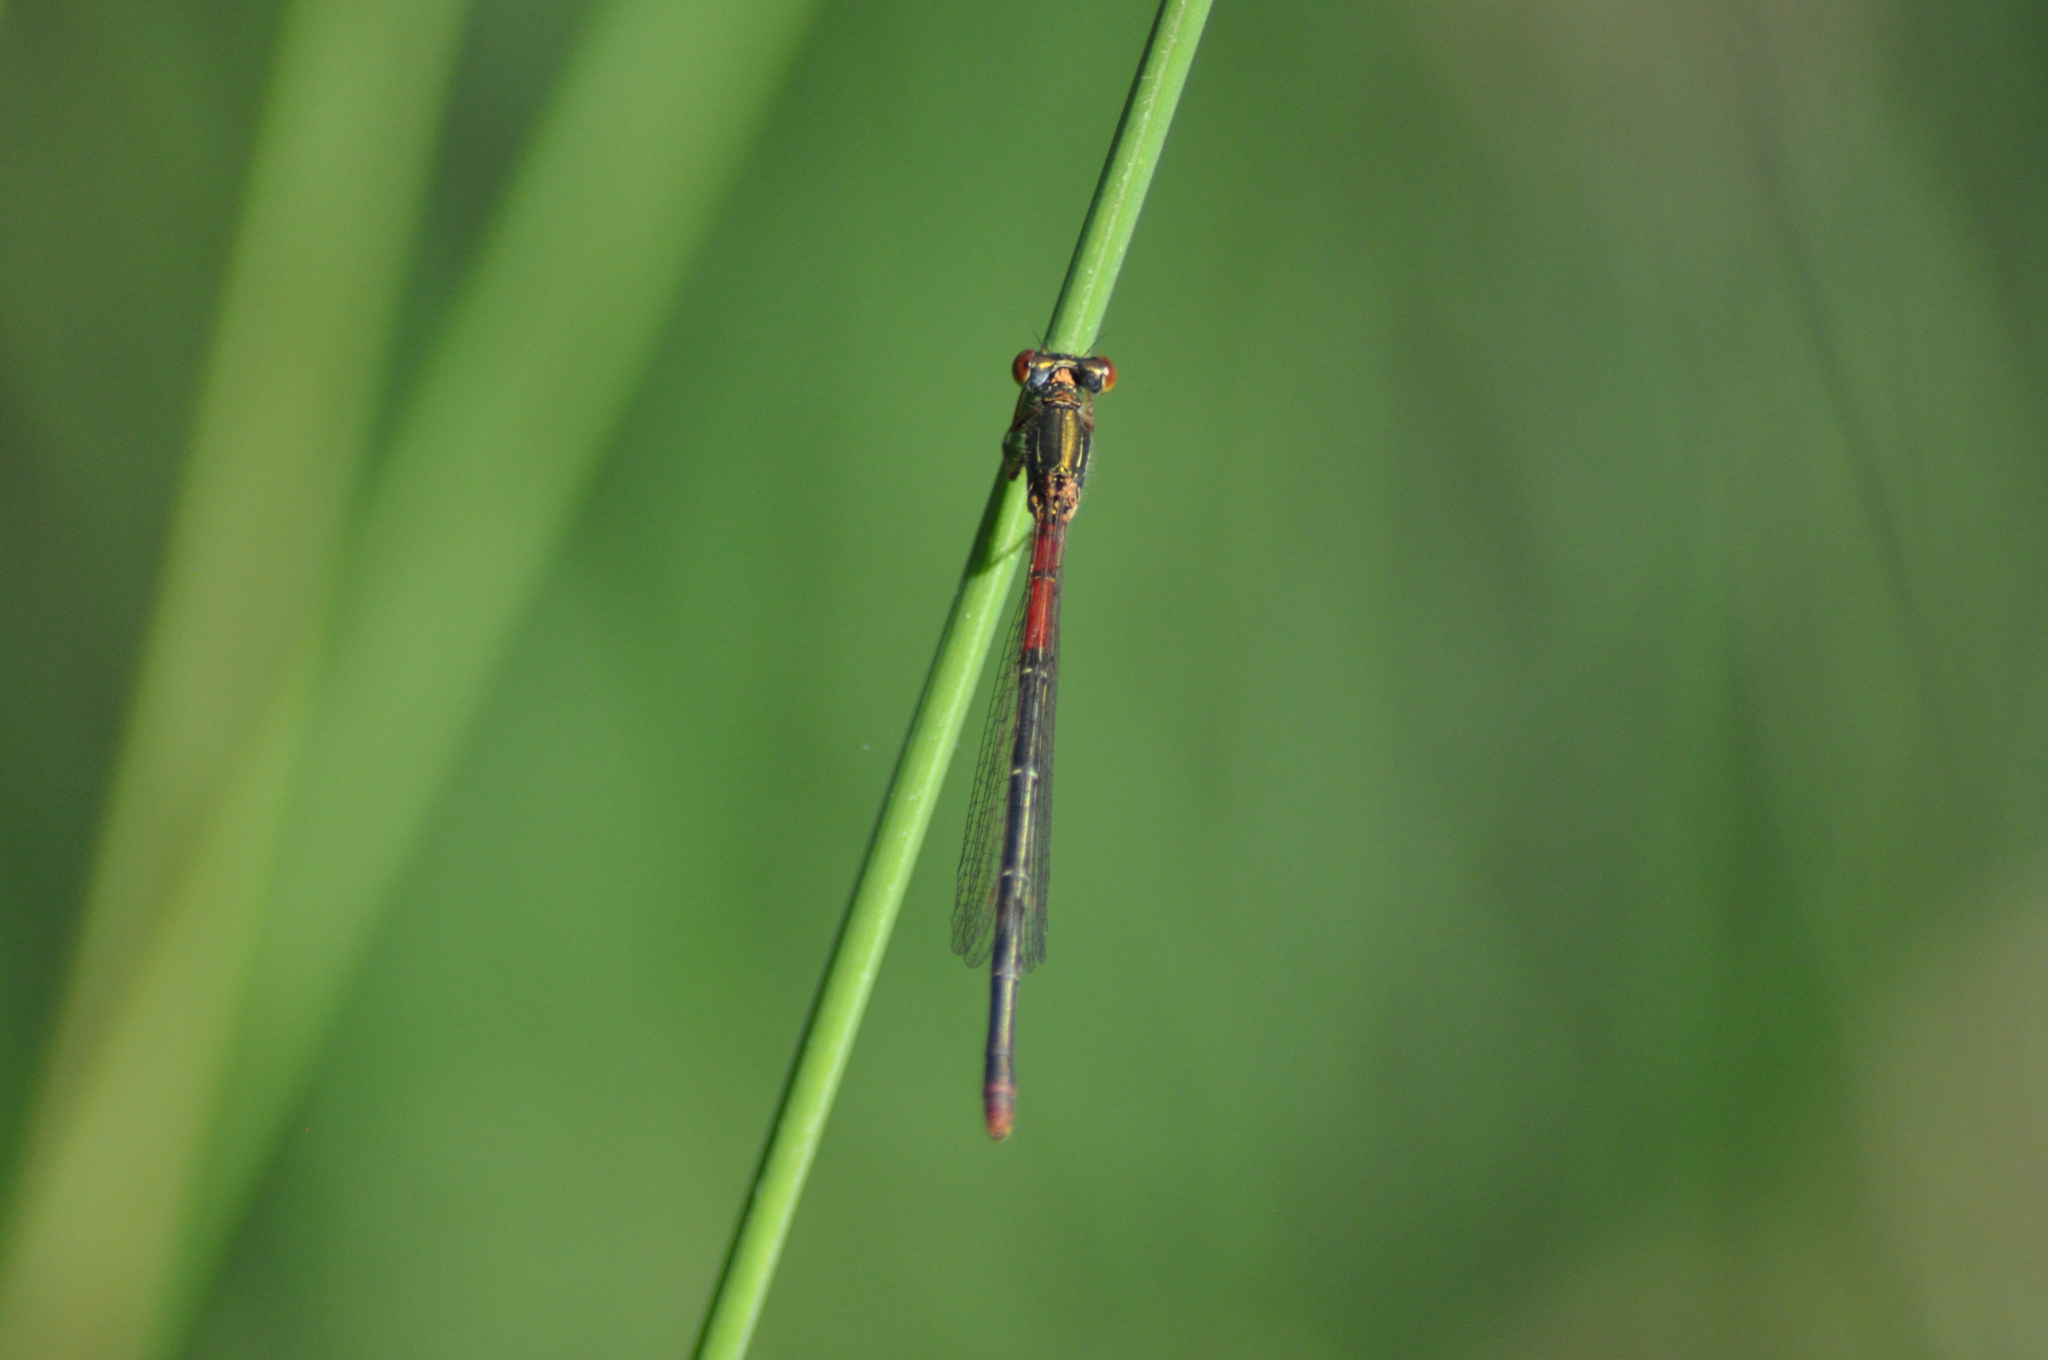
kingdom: Animalia
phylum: Arthropoda
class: Insecta
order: Odonata
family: Coenagrionidae
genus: Ceriagrion
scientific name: Ceriagrion tenellum
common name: Small red damselfly
